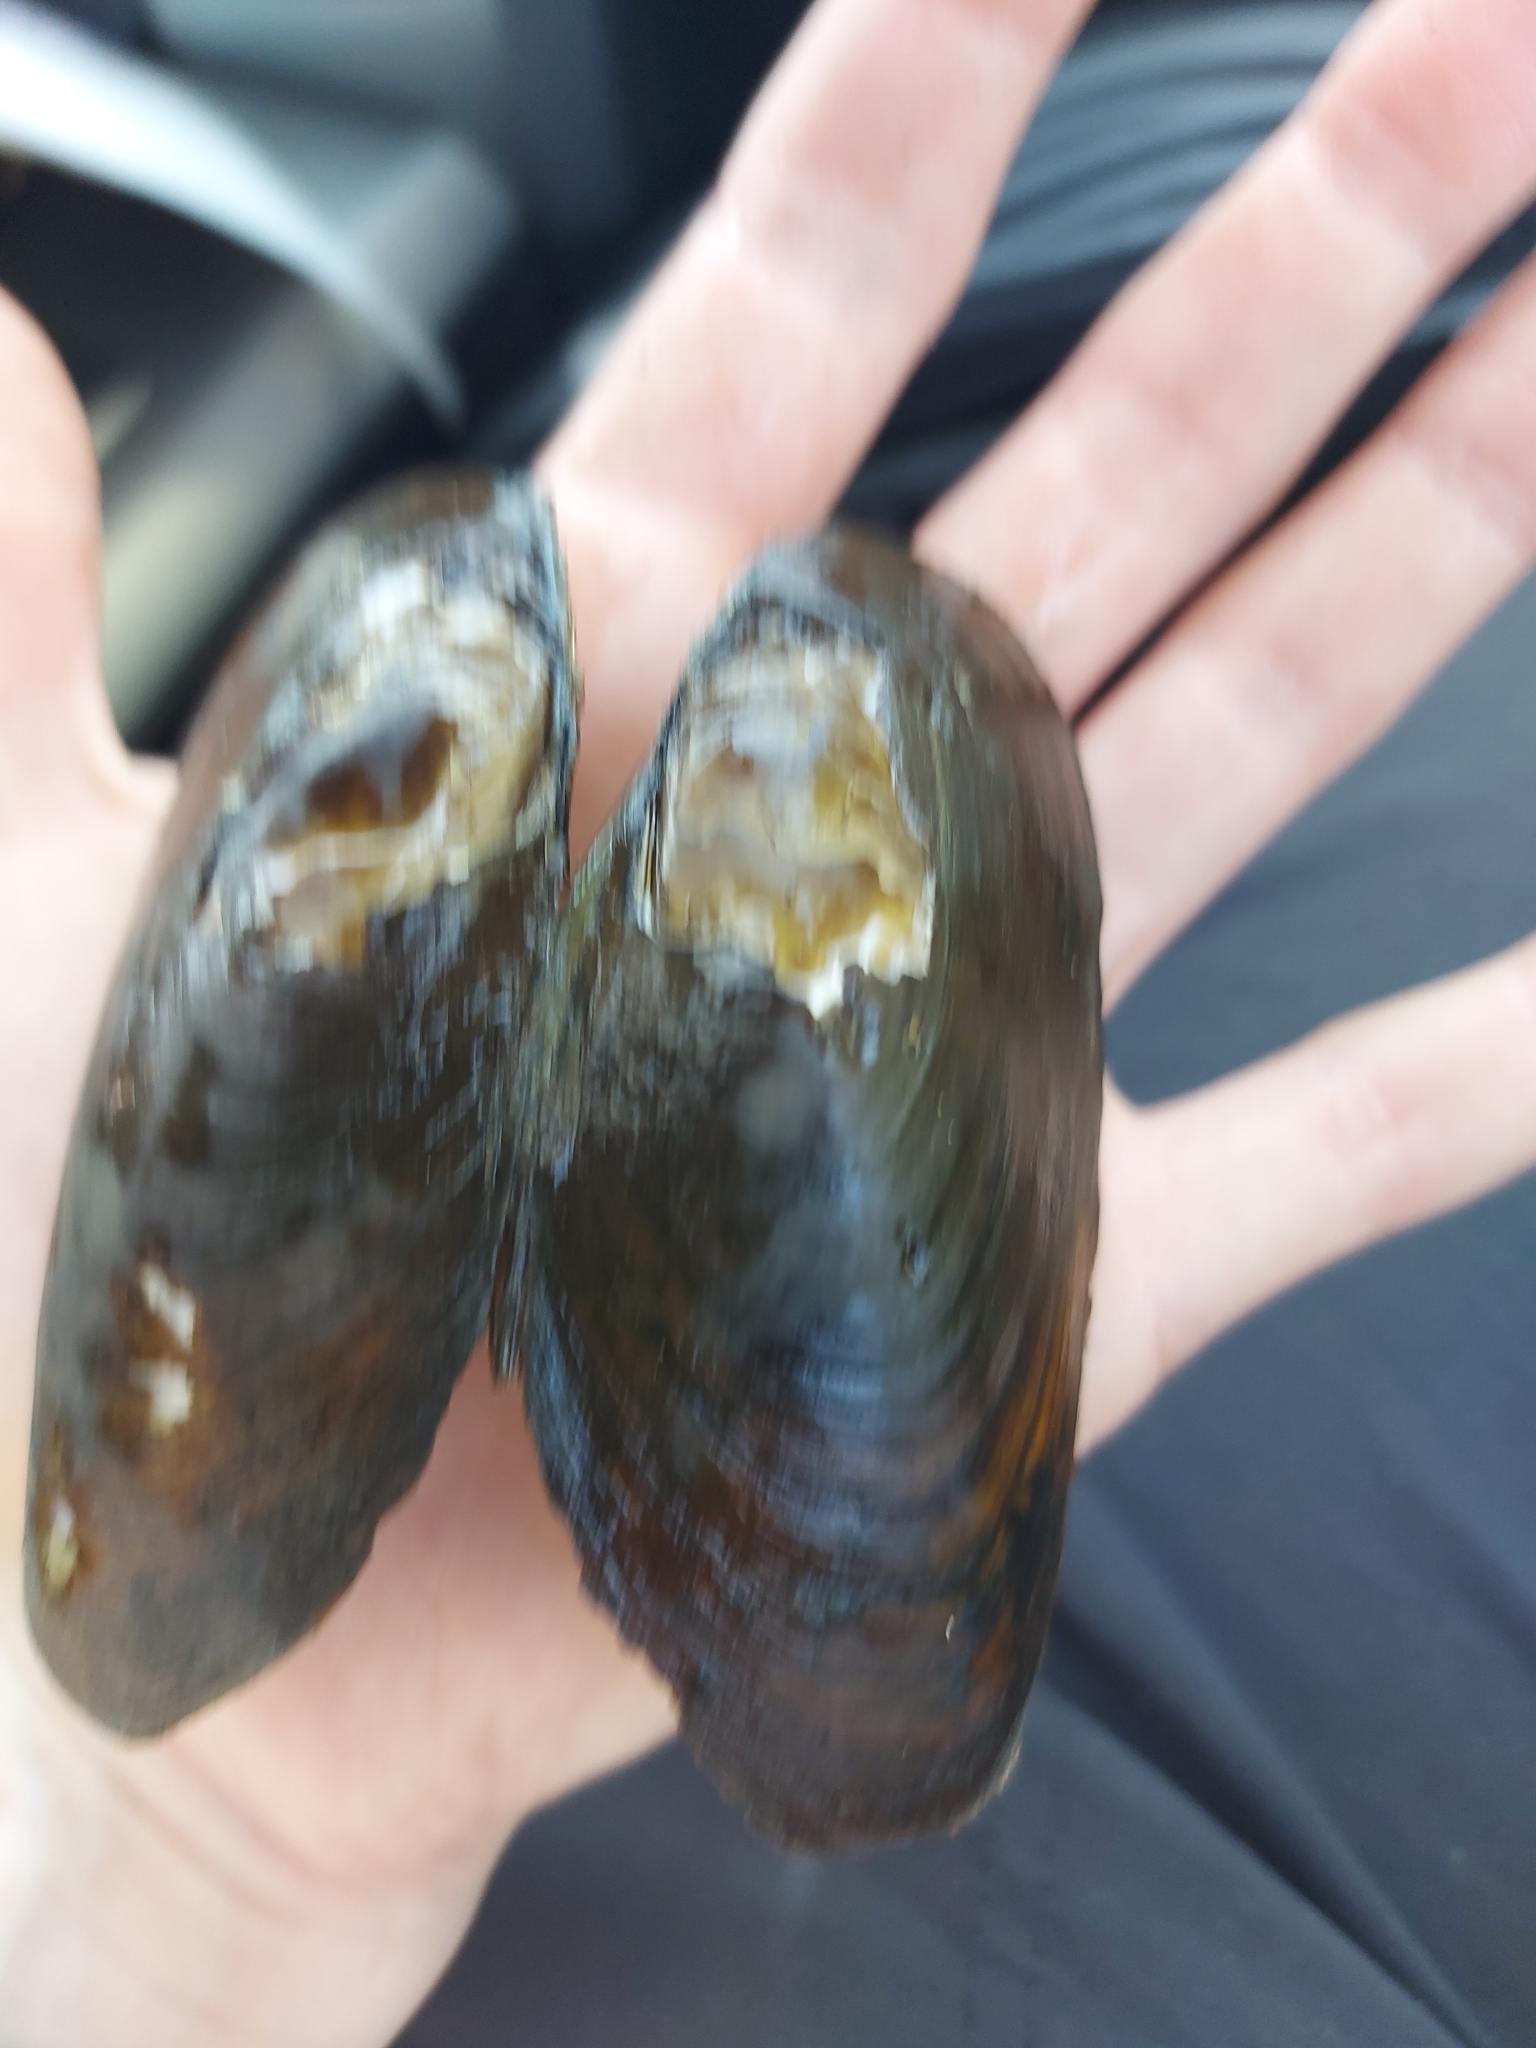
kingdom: Animalia
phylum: Mollusca
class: Bivalvia
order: Unionida
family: Unionidae
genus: Elliptio
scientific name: Elliptio complanata
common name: Eastern elliptio
